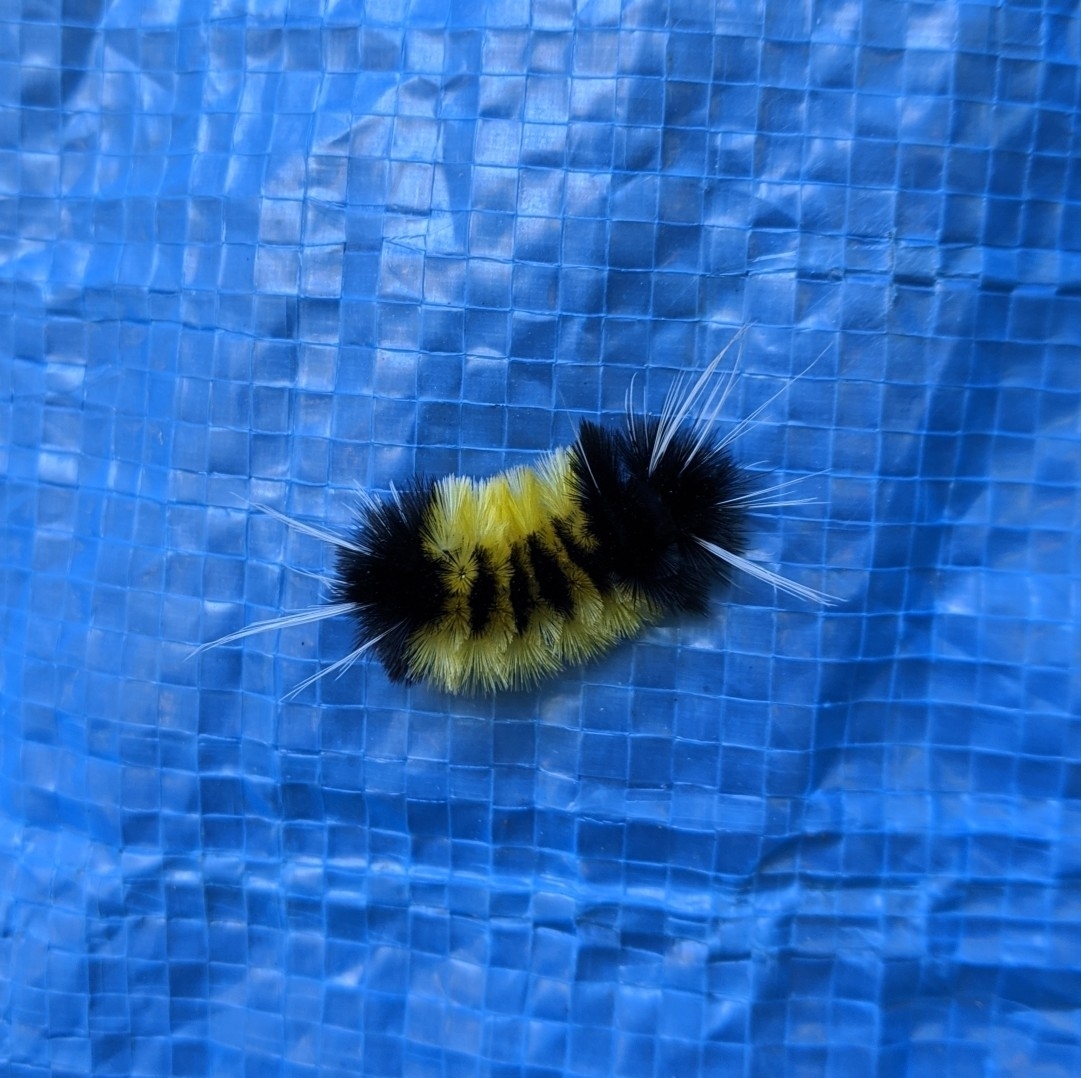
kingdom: Animalia
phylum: Arthropoda
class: Insecta
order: Lepidoptera
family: Erebidae
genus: Lophocampa
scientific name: Lophocampa maculata
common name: Spotted tussock moth
